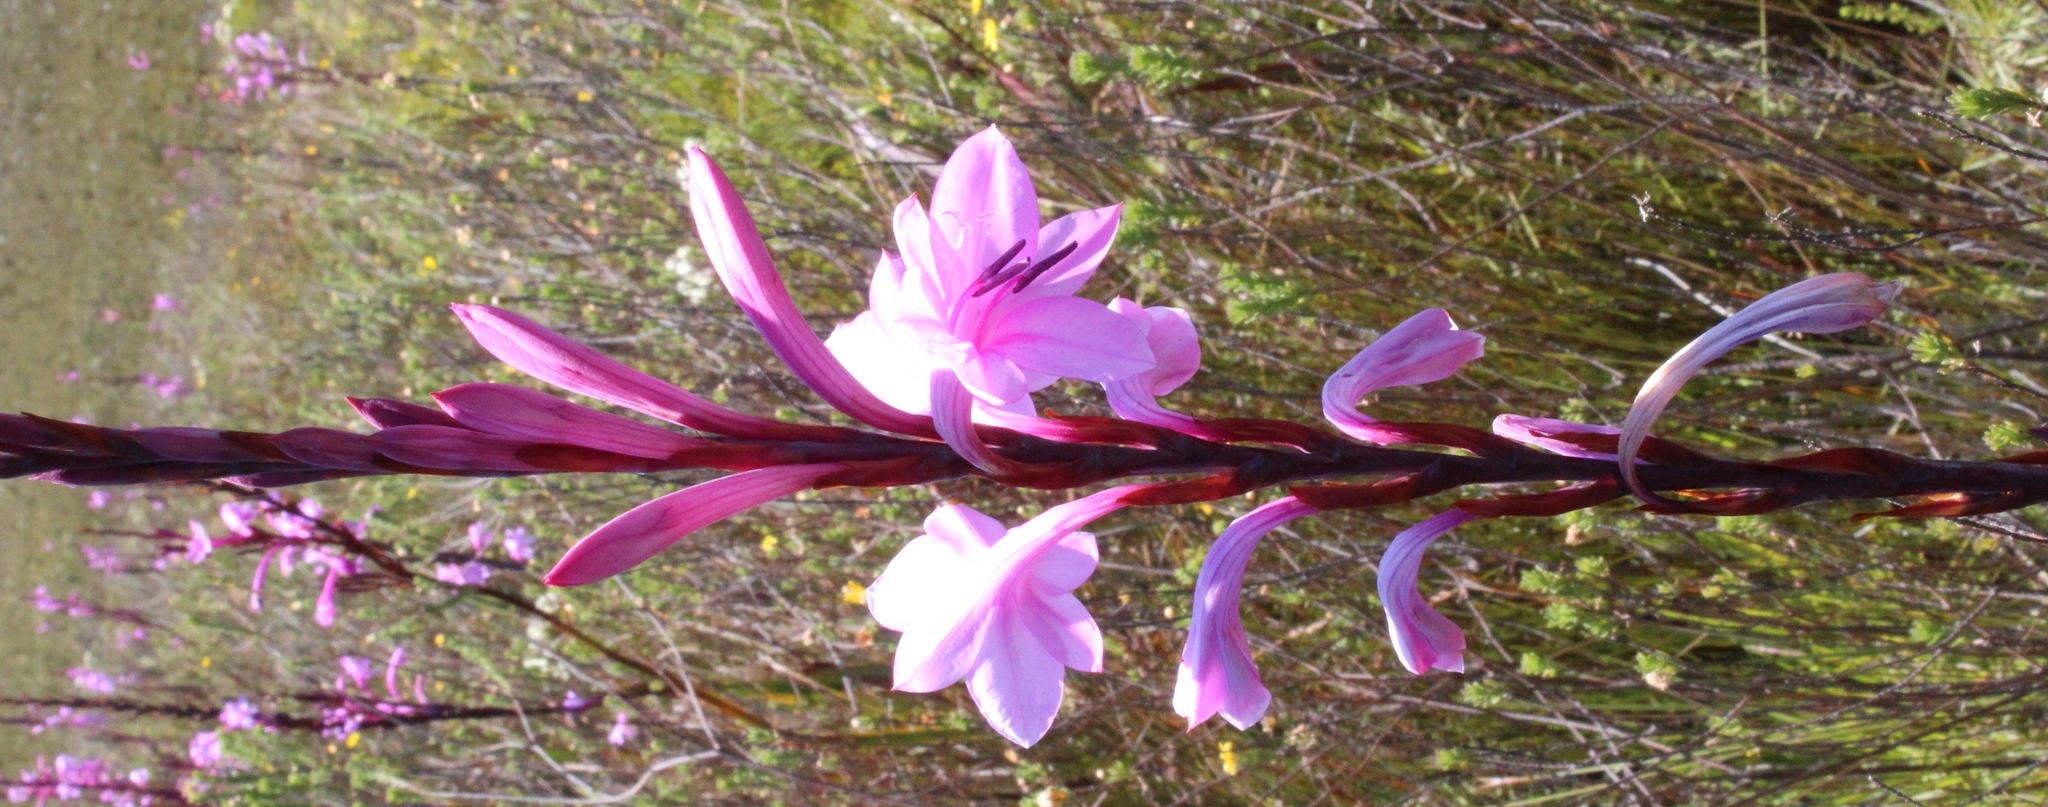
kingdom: Plantae
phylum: Tracheophyta
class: Liliopsida
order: Asparagales
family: Iridaceae
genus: Watsonia
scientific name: Watsonia fourcadei
